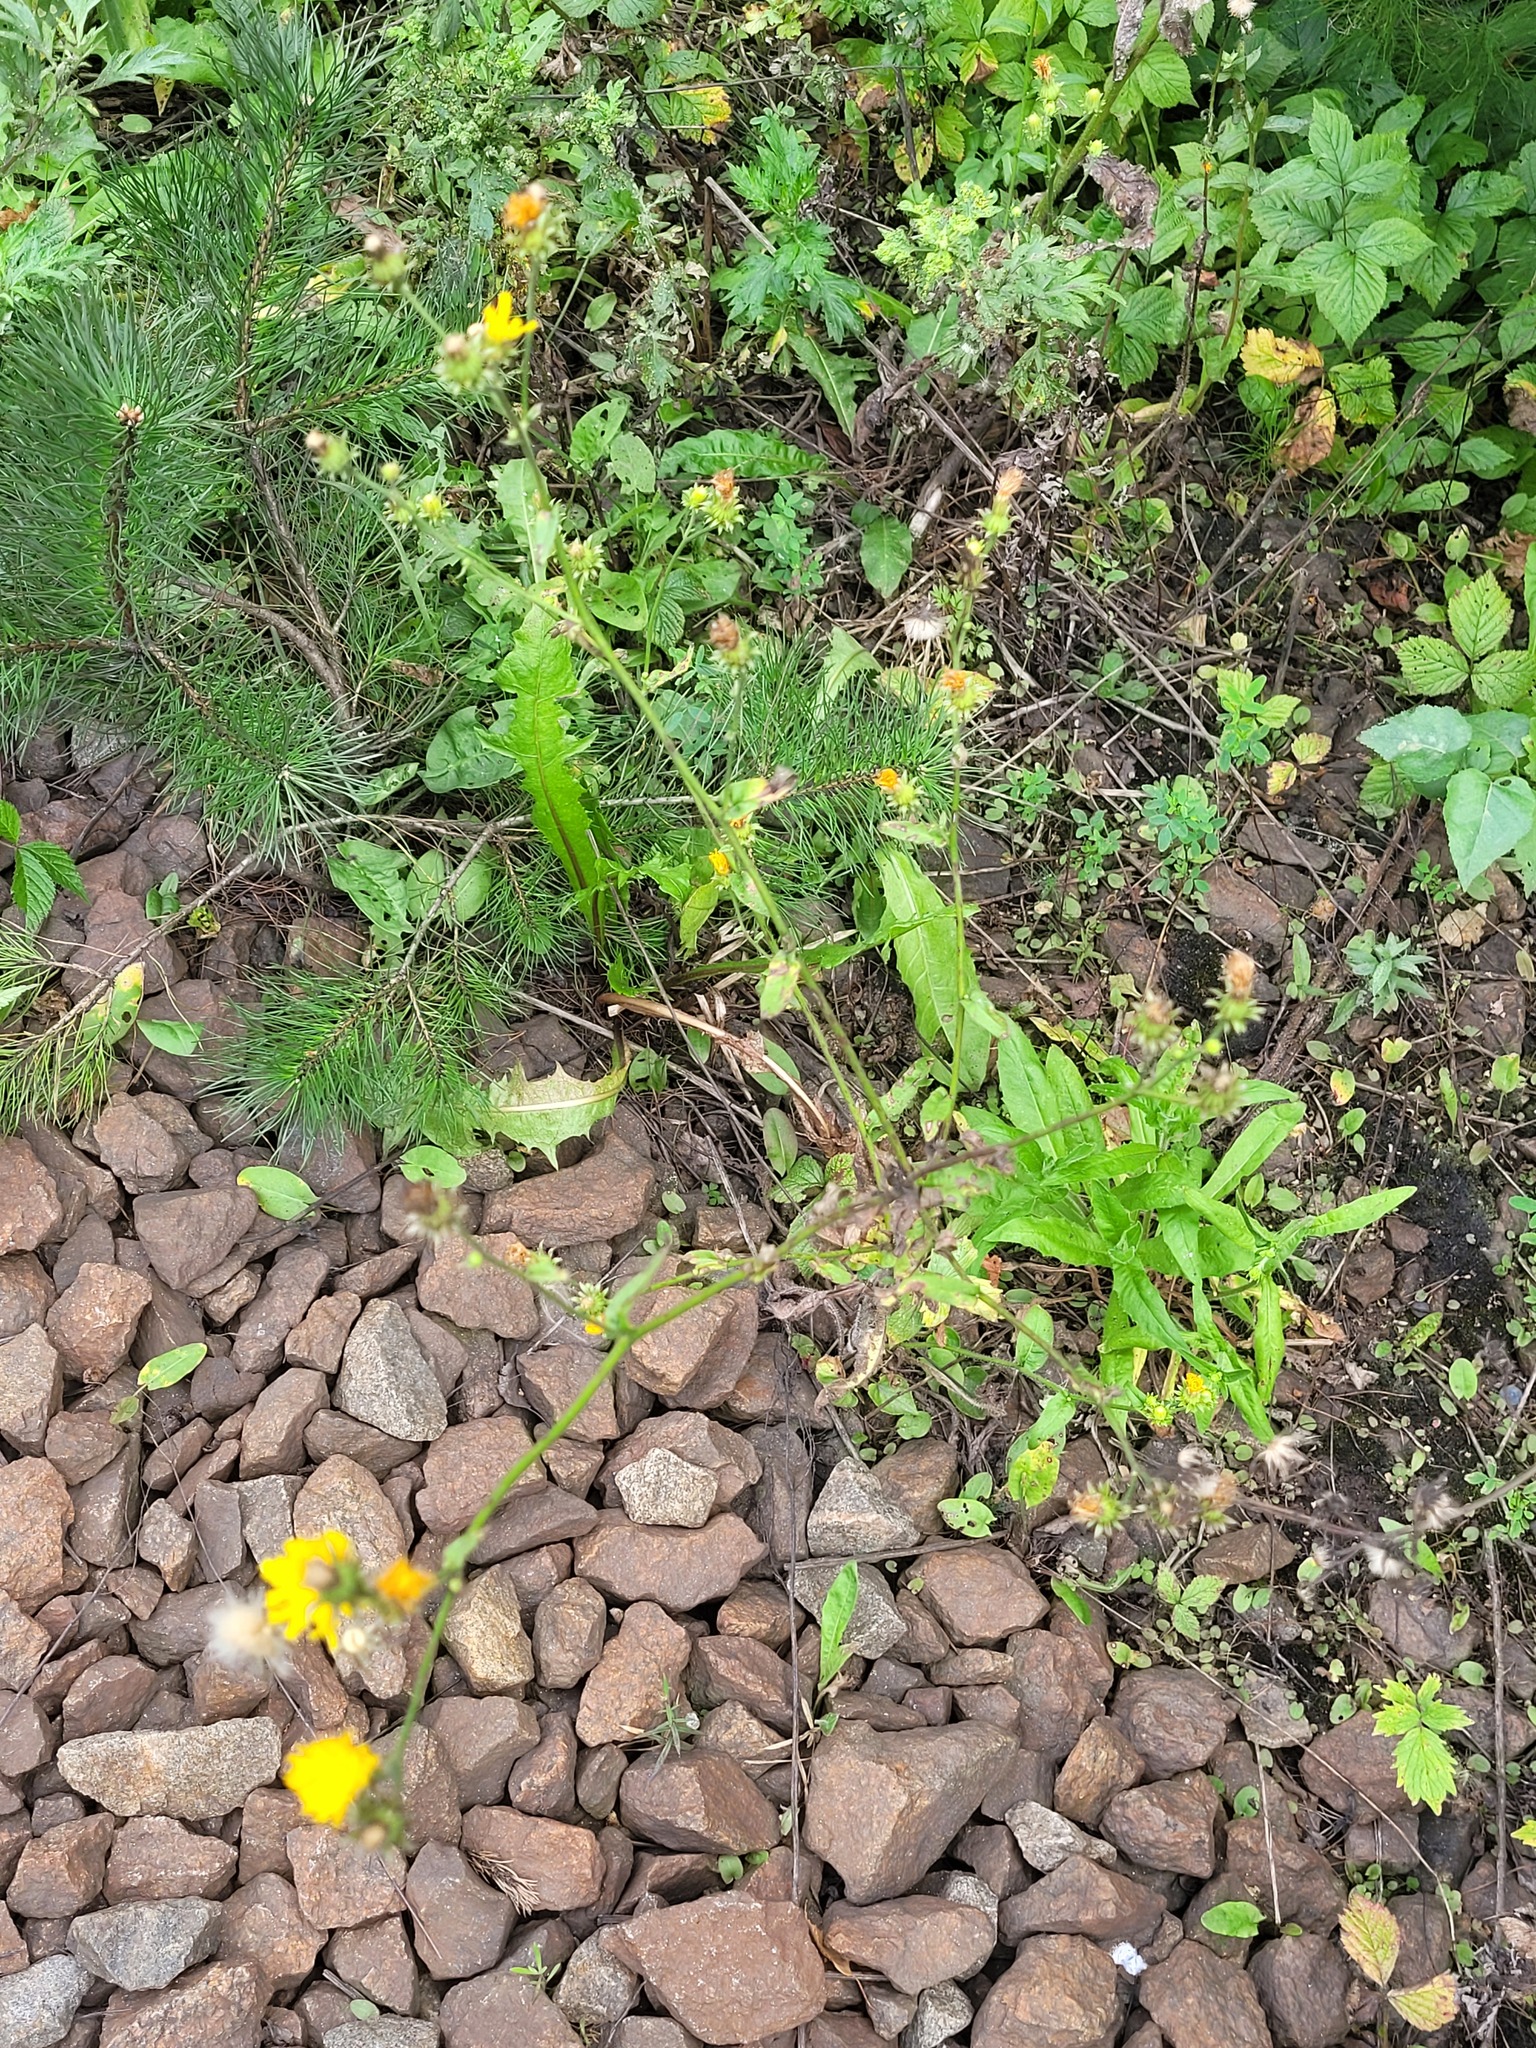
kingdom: Plantae
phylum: Tracheophyta
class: Magnoliopsida
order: Asterales
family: Asteraceae
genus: Picris
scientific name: Picris hieracioides
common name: Hawkweed oxtongue
